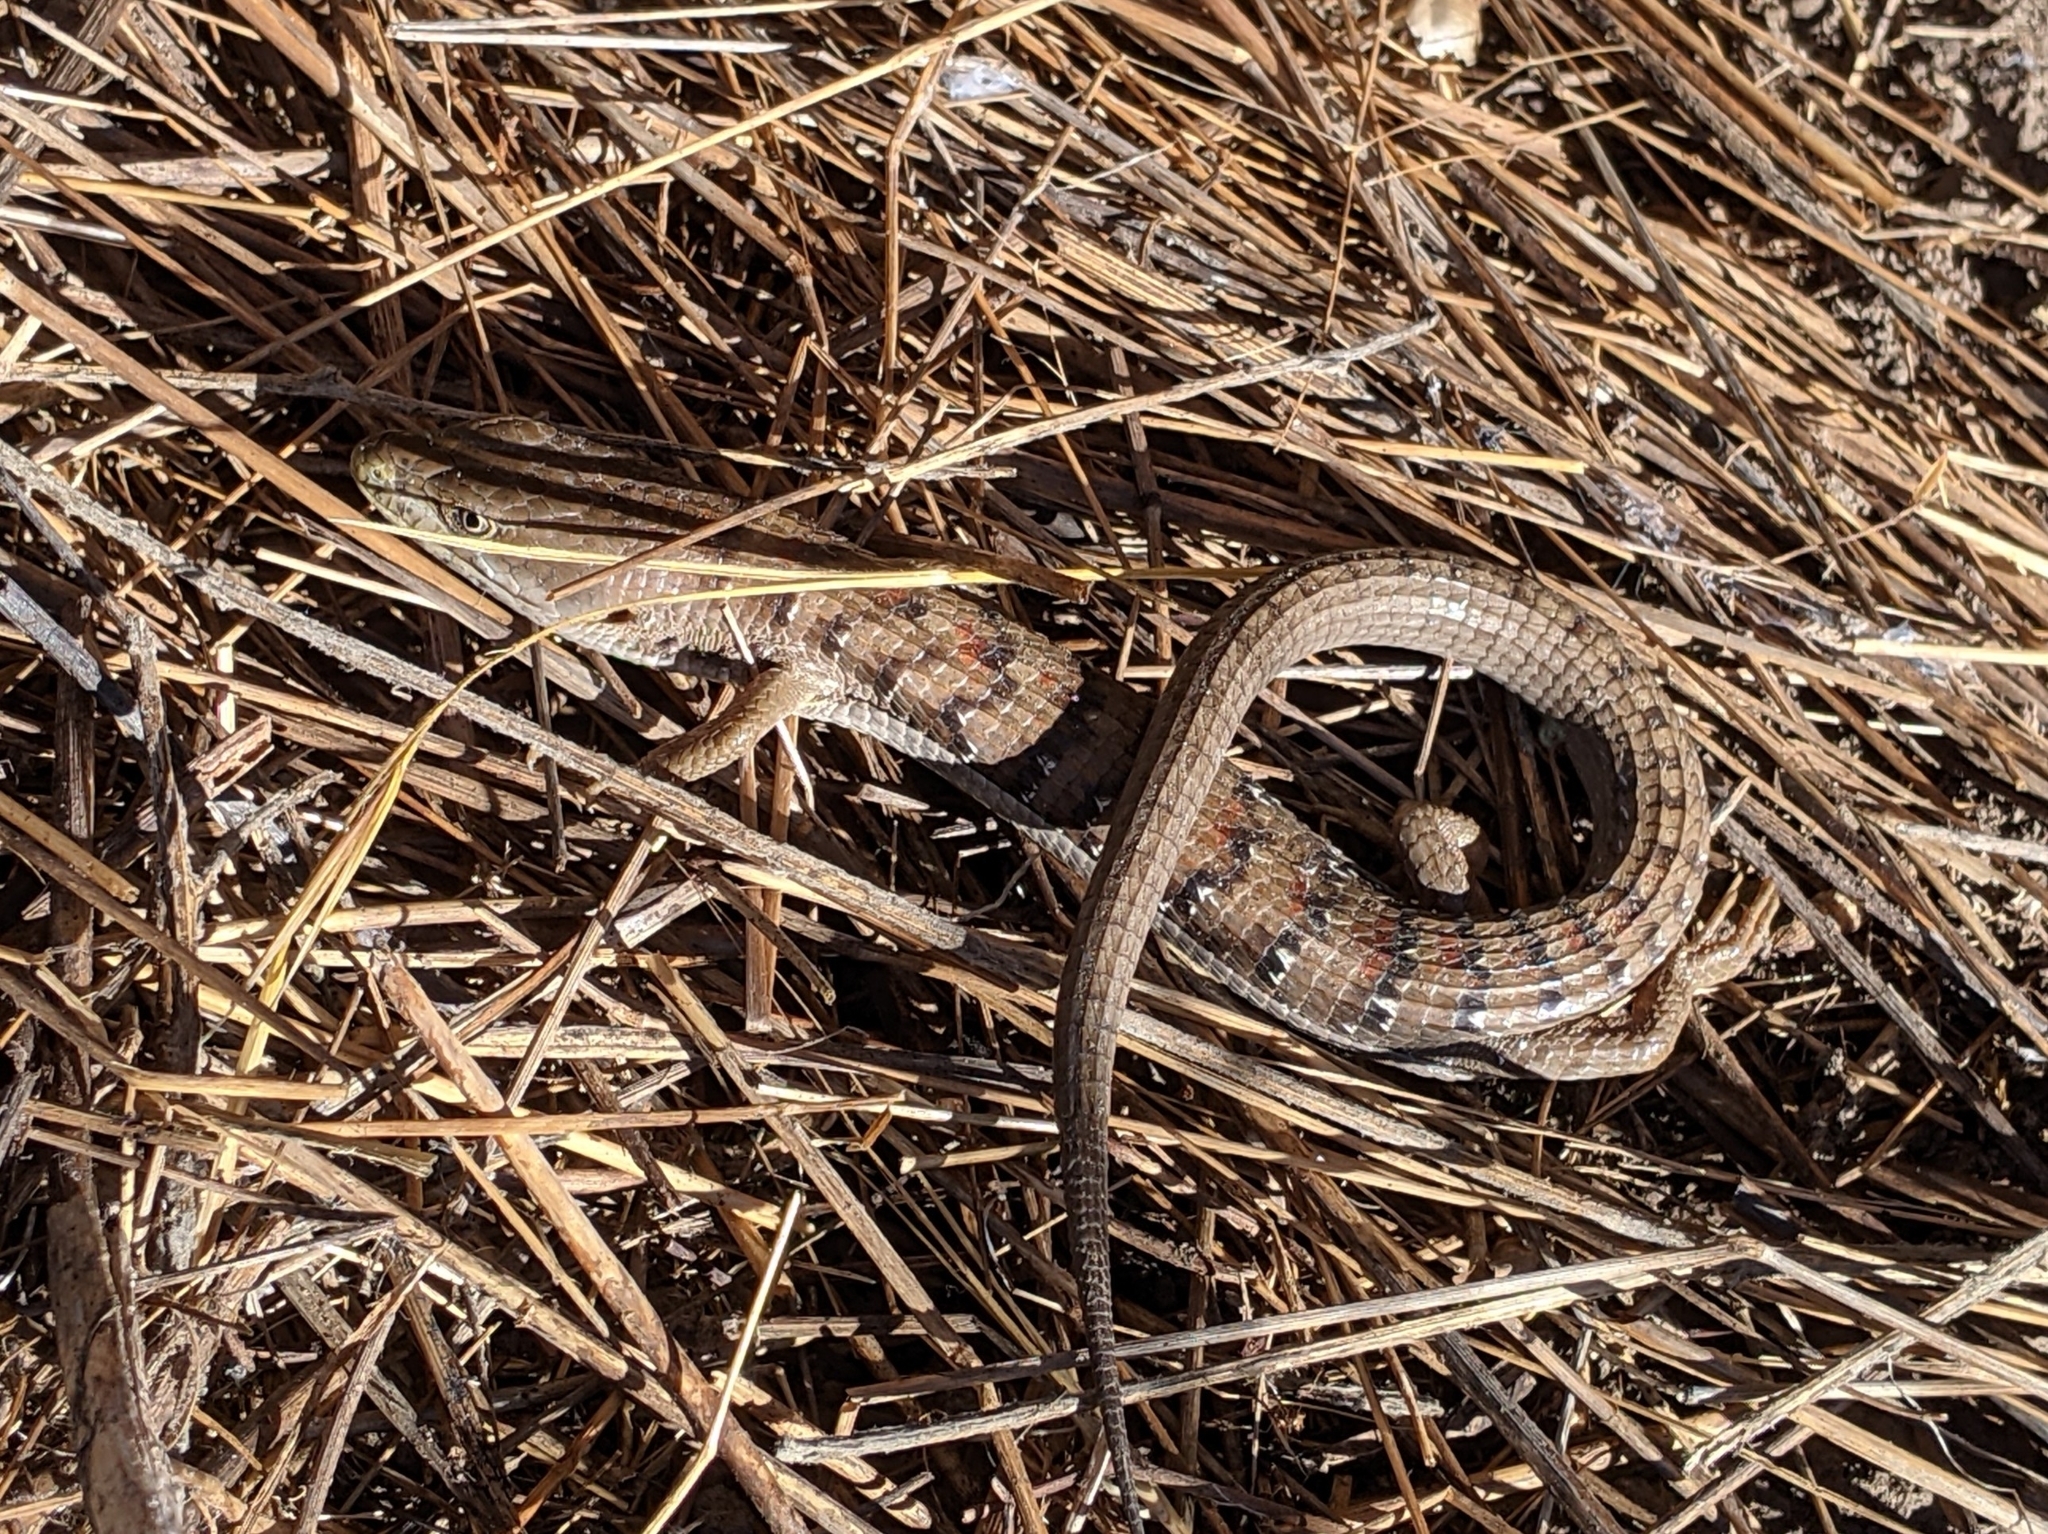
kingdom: Animalia
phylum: Chordata
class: Squamata
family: Anguidae
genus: Elgaria
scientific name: Elgaria multicarinata
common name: Southern alligator lizard
